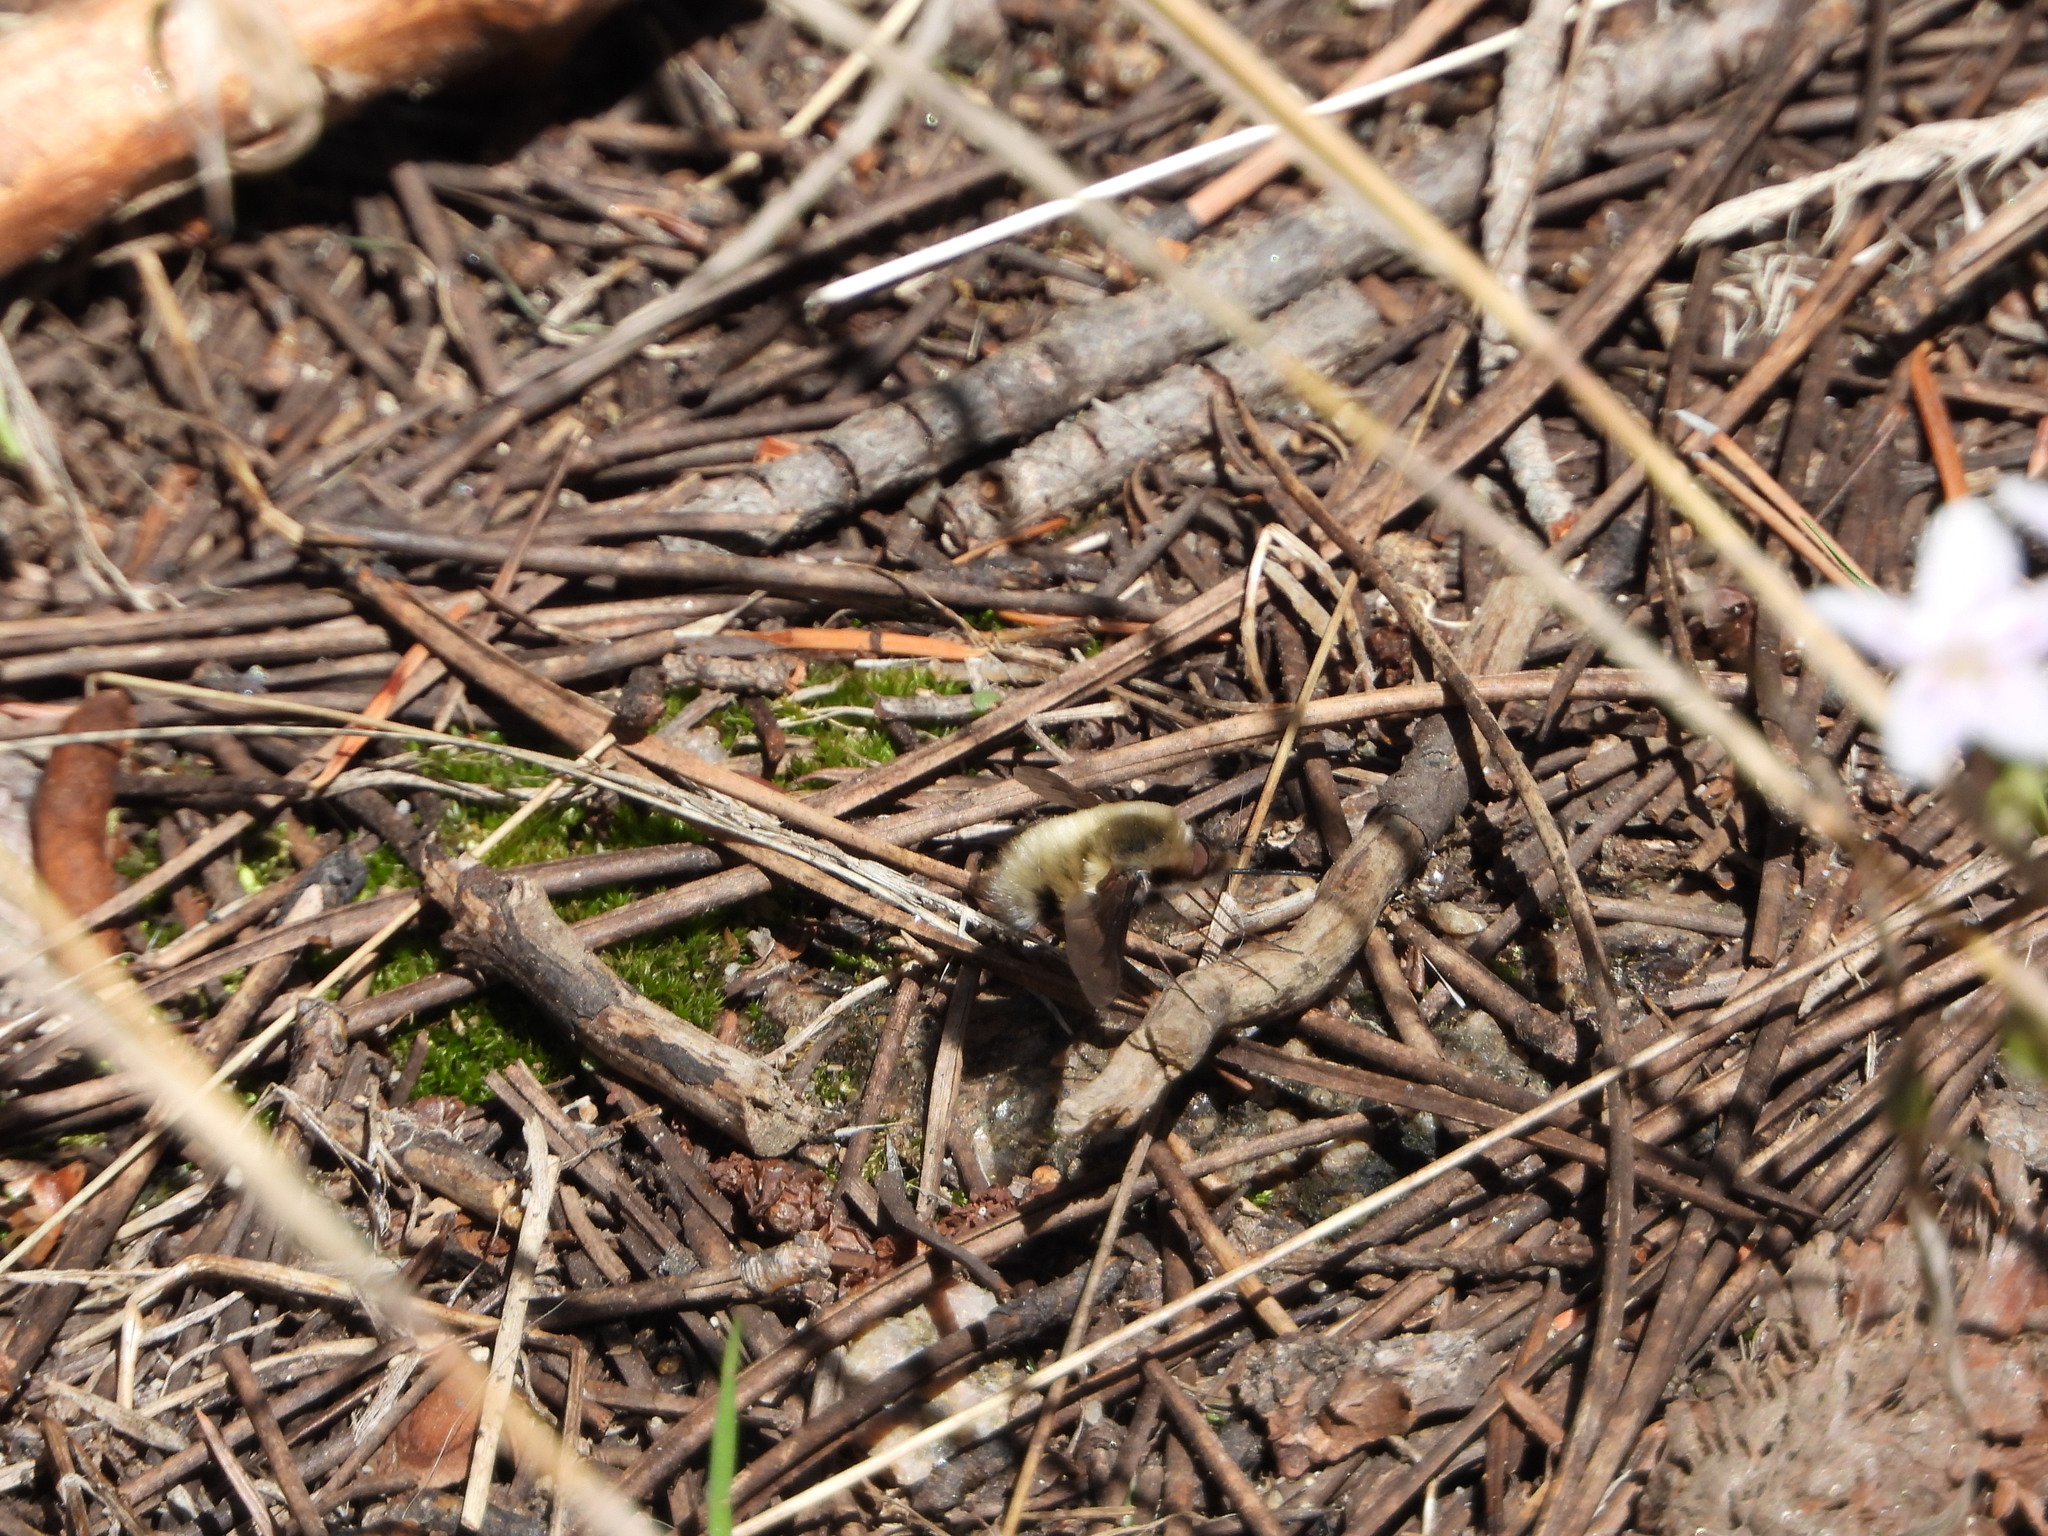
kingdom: Animalia
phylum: Arthropoda
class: Insecta
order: Diptera
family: Bombyliidae
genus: Bombylius
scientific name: Bombylius major
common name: Bee fly
